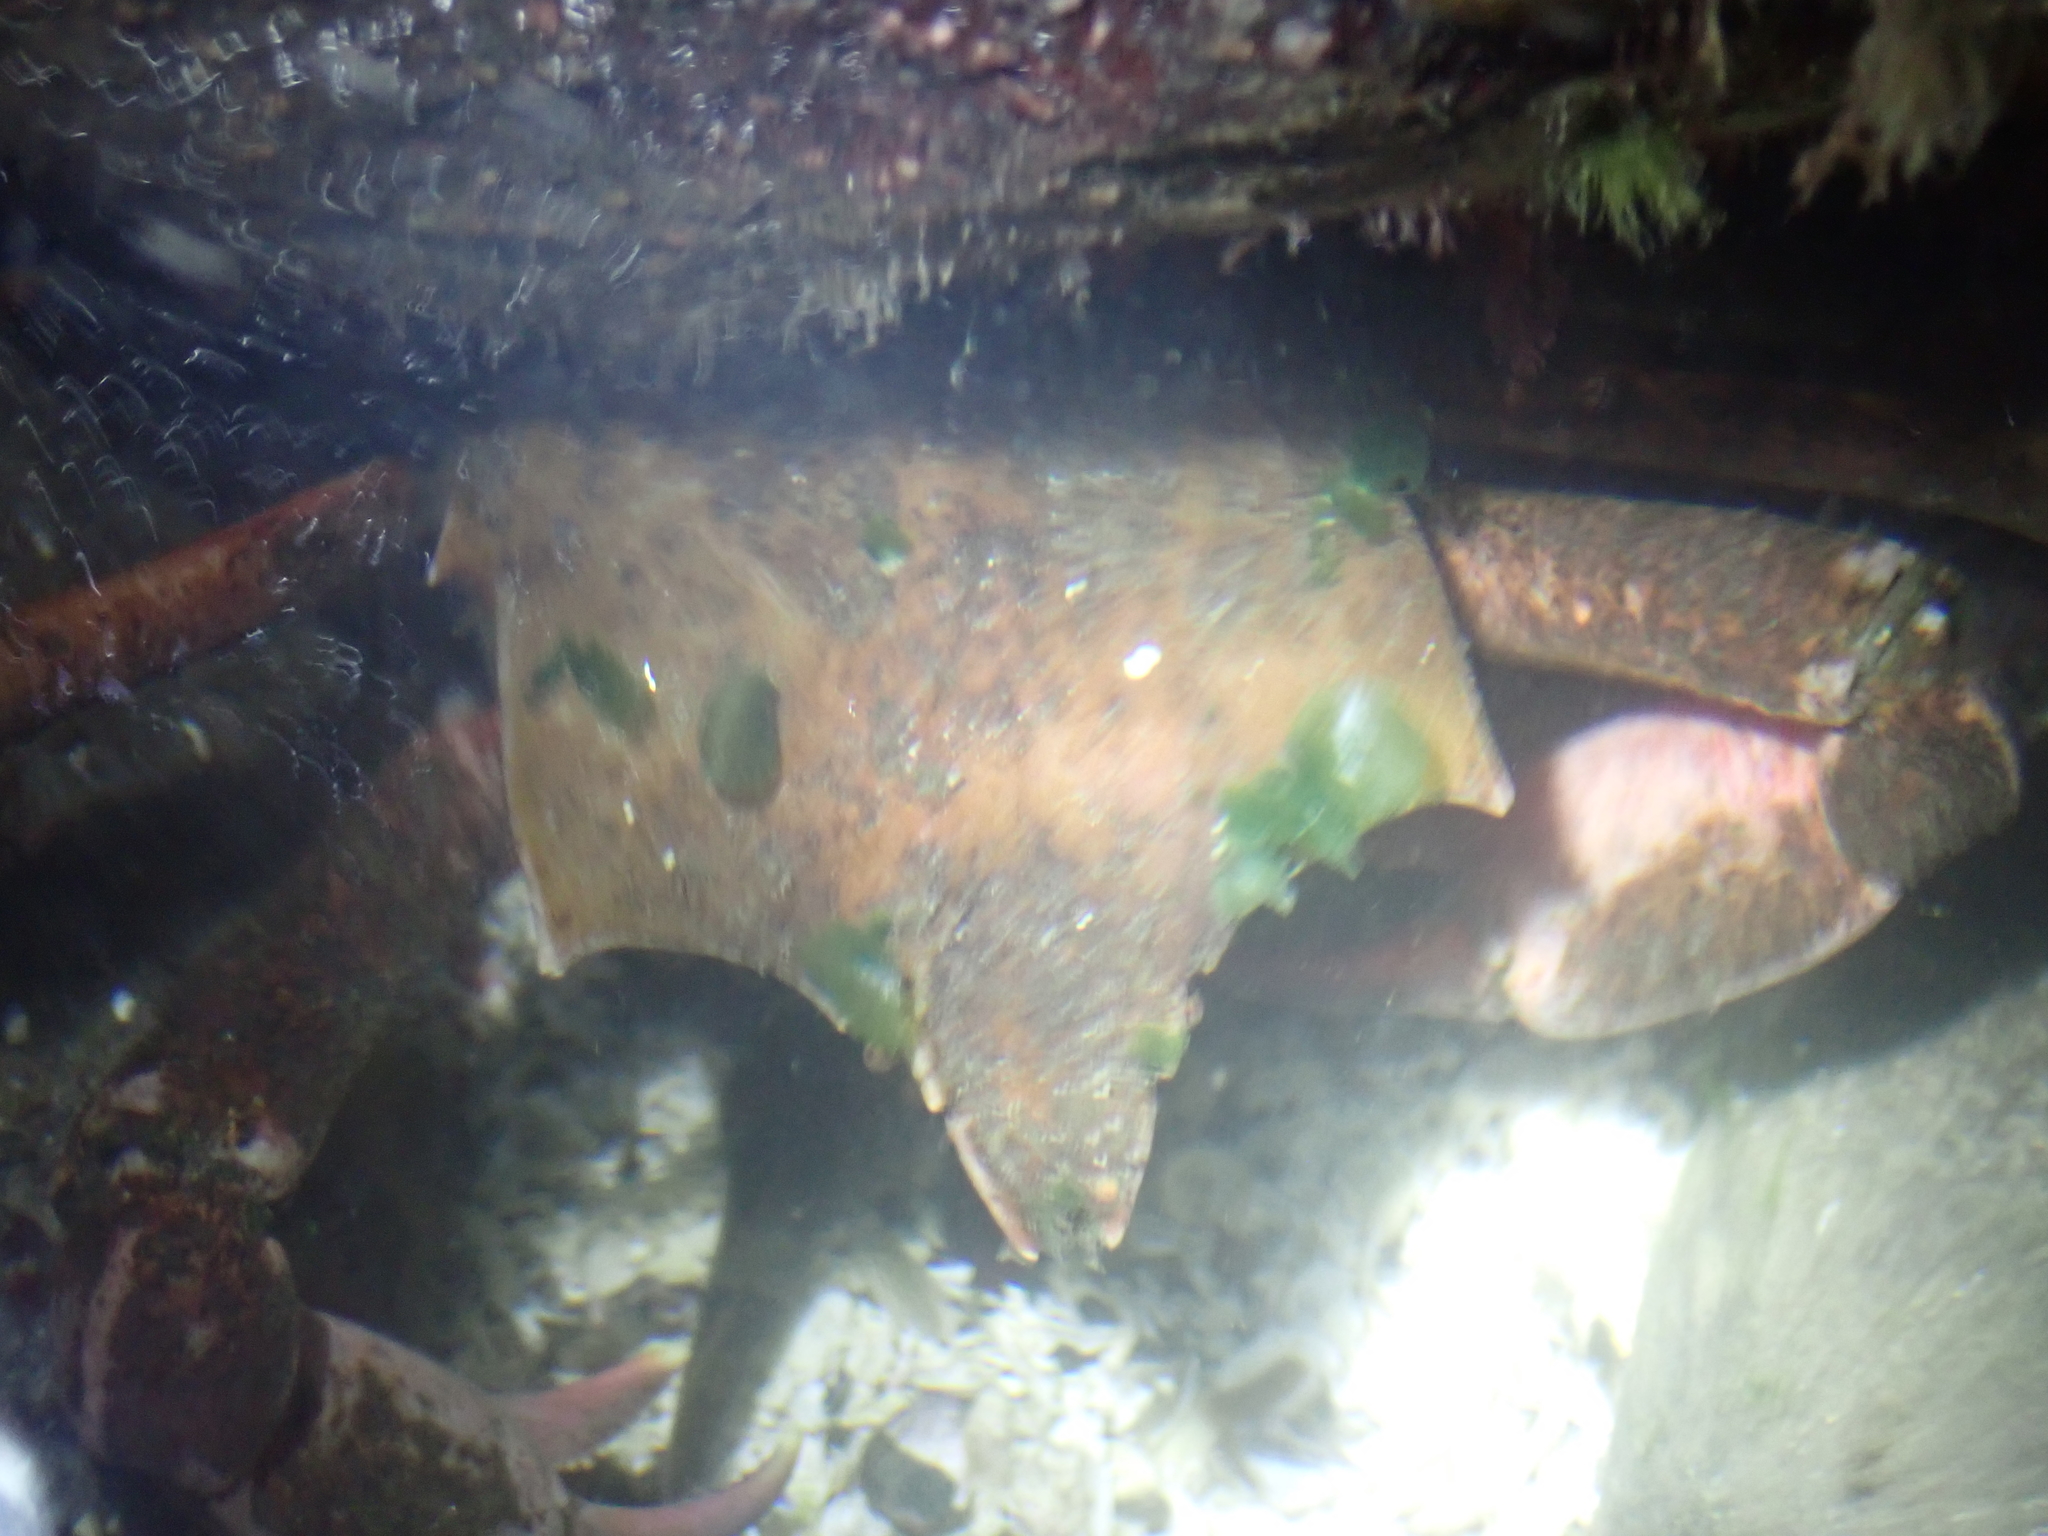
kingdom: Animalia
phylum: Arthropoda
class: Malacostraca
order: Decapoda
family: Epialtidae
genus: Pugettia
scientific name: Pugettia producta
